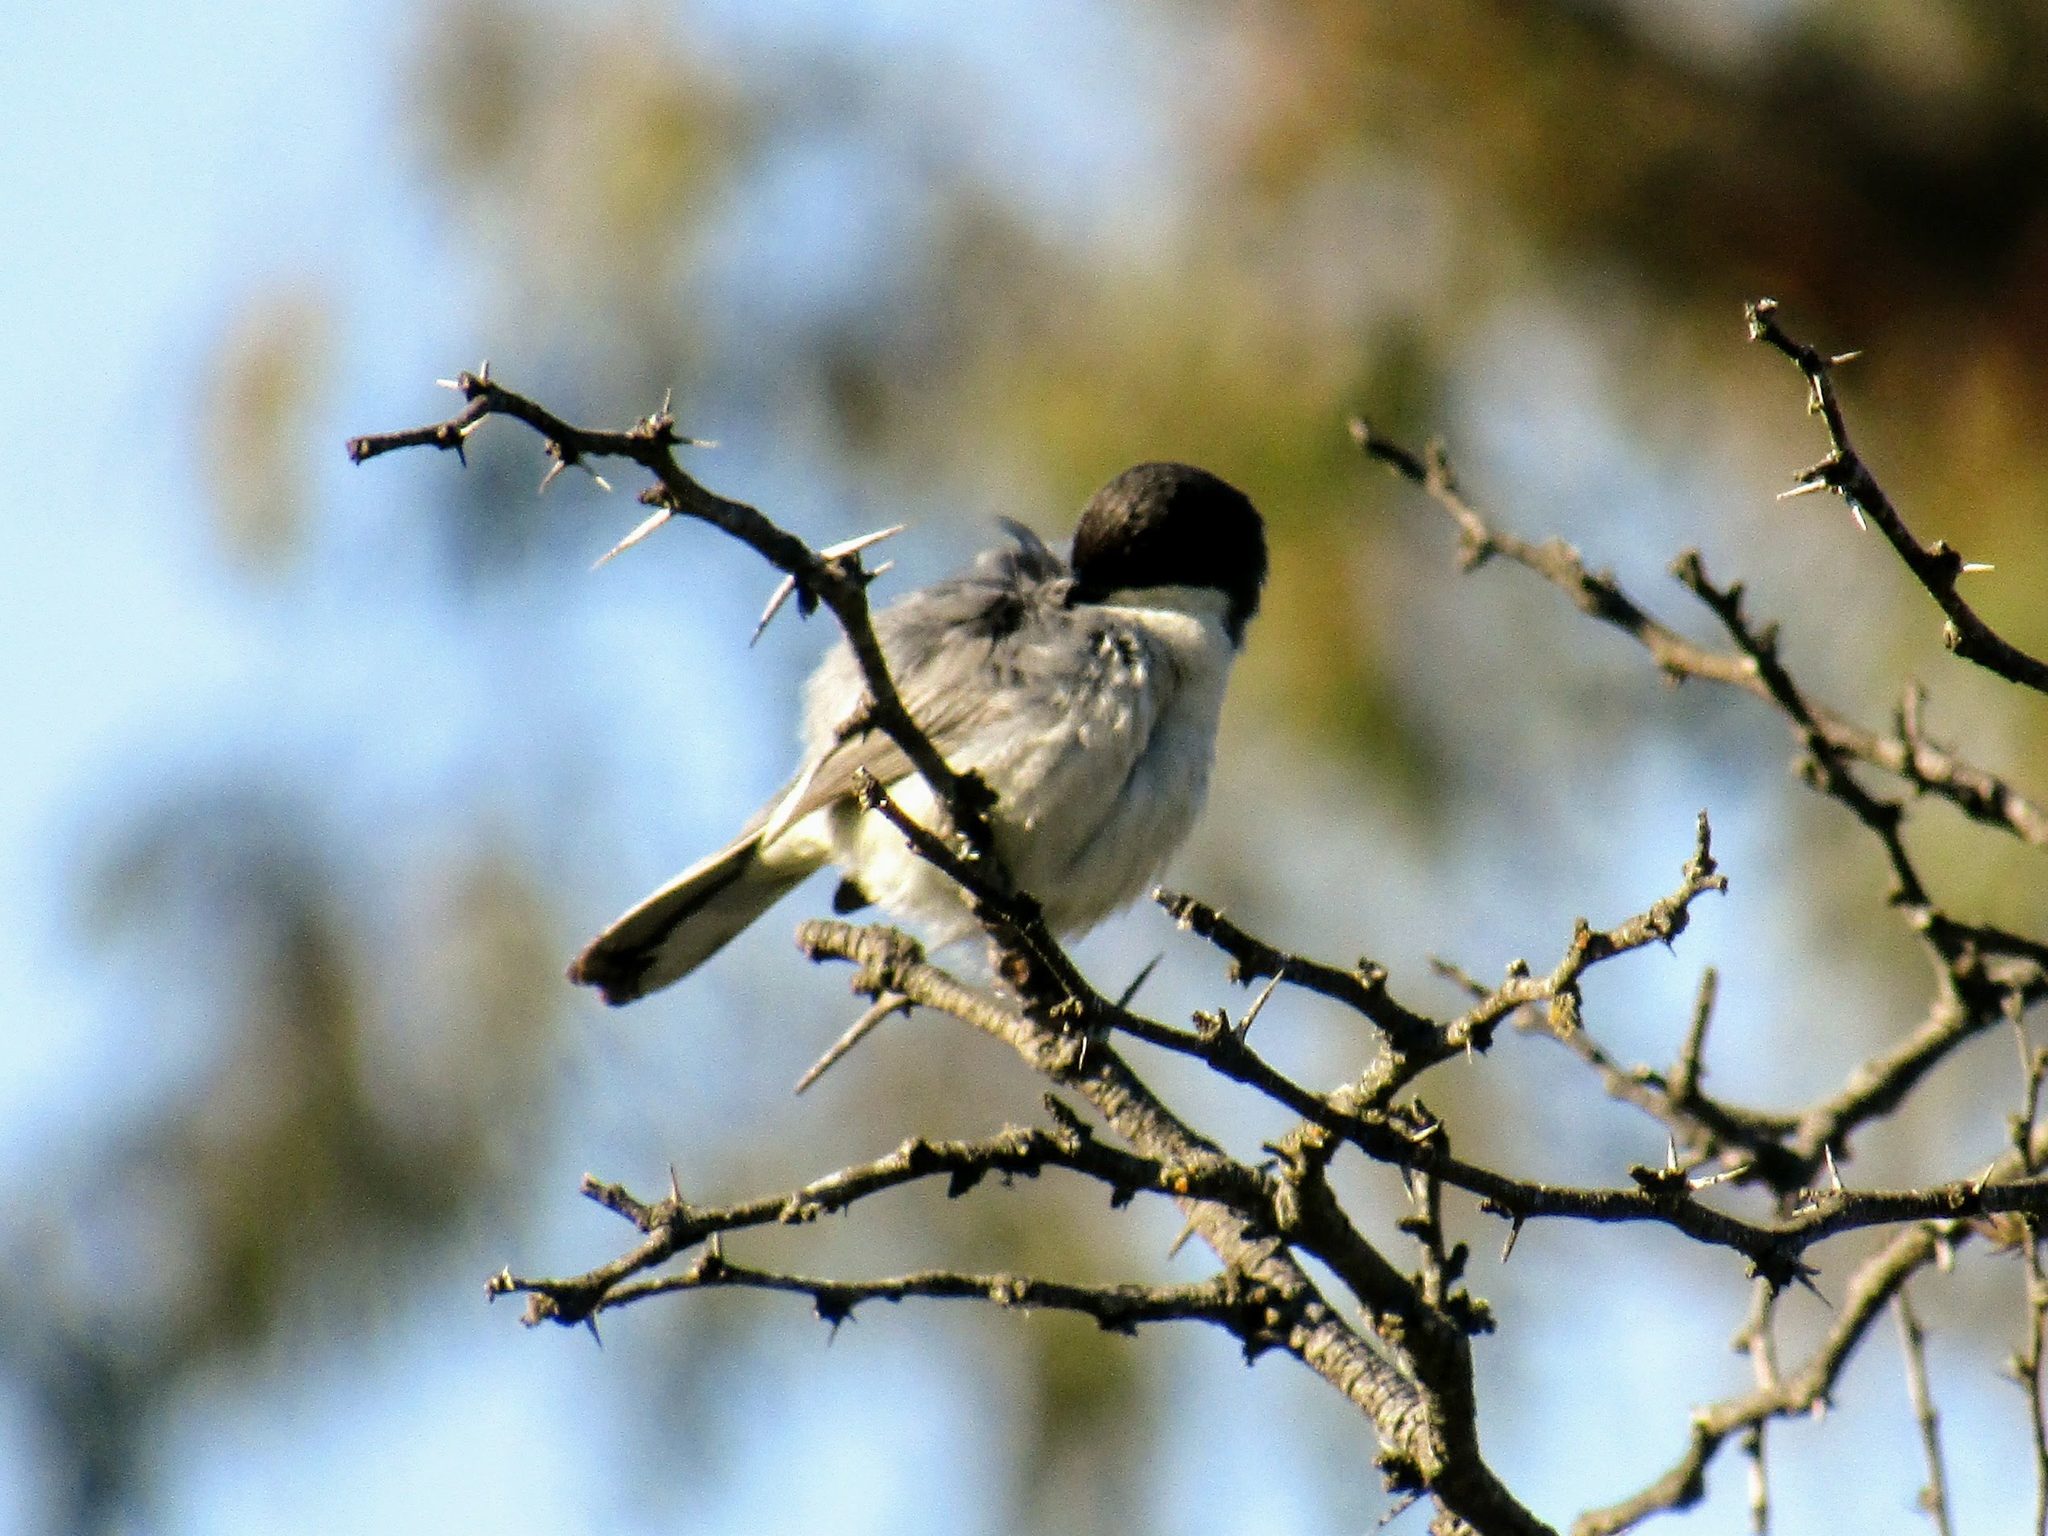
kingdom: Animalia
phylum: Chordata
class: Aves
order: Passeriformes
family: Thraupidae
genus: Microspingus
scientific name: Microspingus melanoleucus
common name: Black-capped warbling-finch
